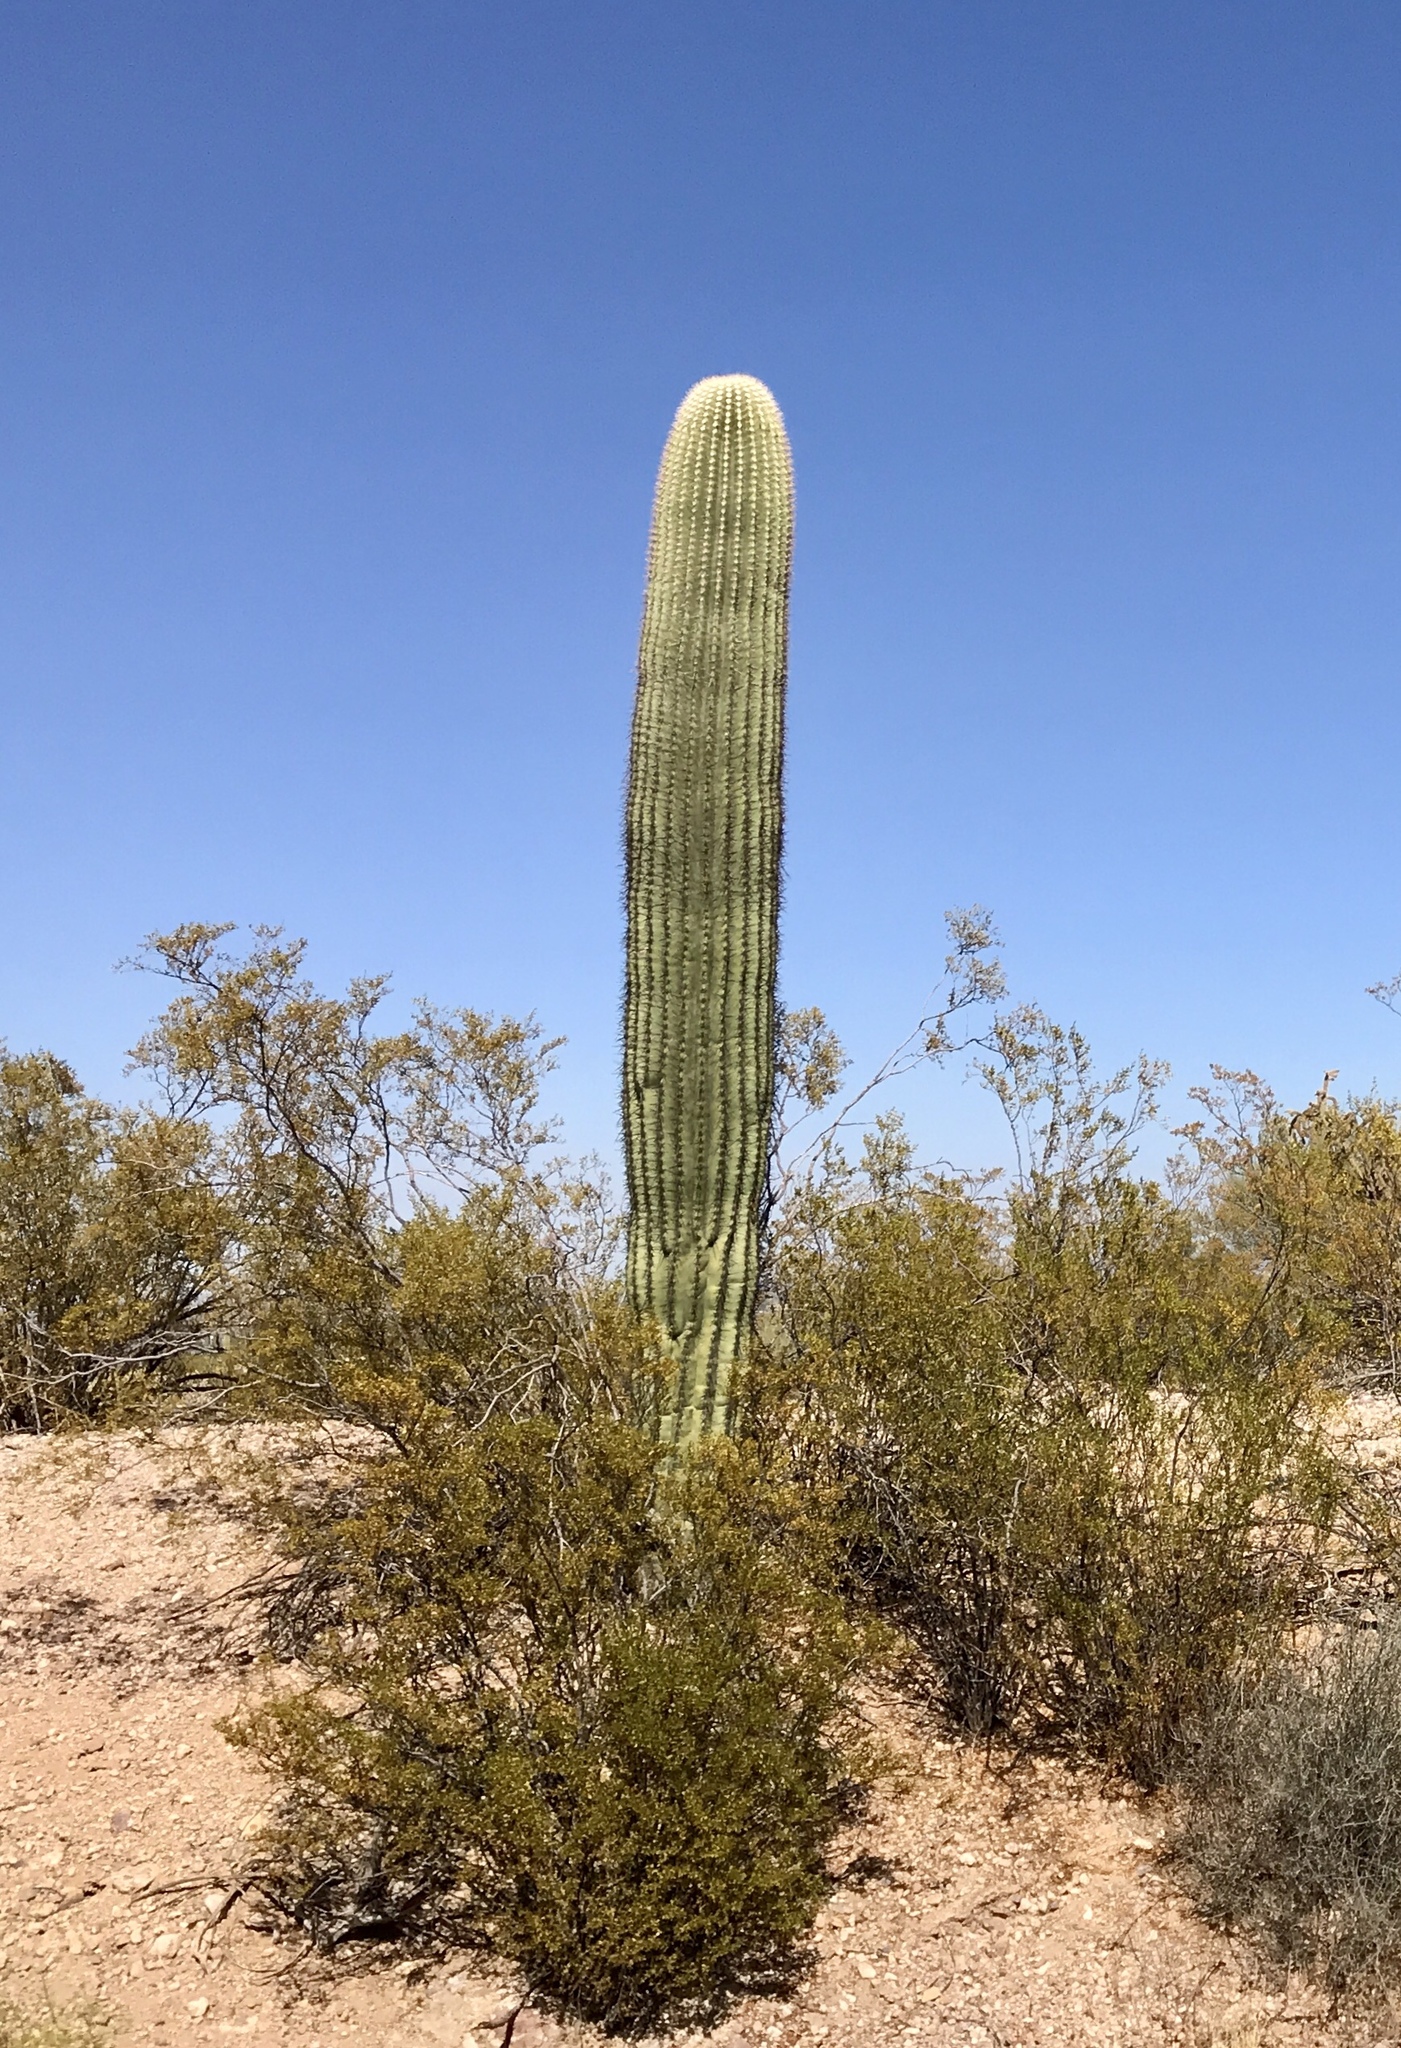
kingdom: Plantae
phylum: Tracheophyta
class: Magnoliopsida
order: Caryophyllales
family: Cactaceae
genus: Carnegiea
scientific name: Carnegiea gigantea
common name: Saguaro
